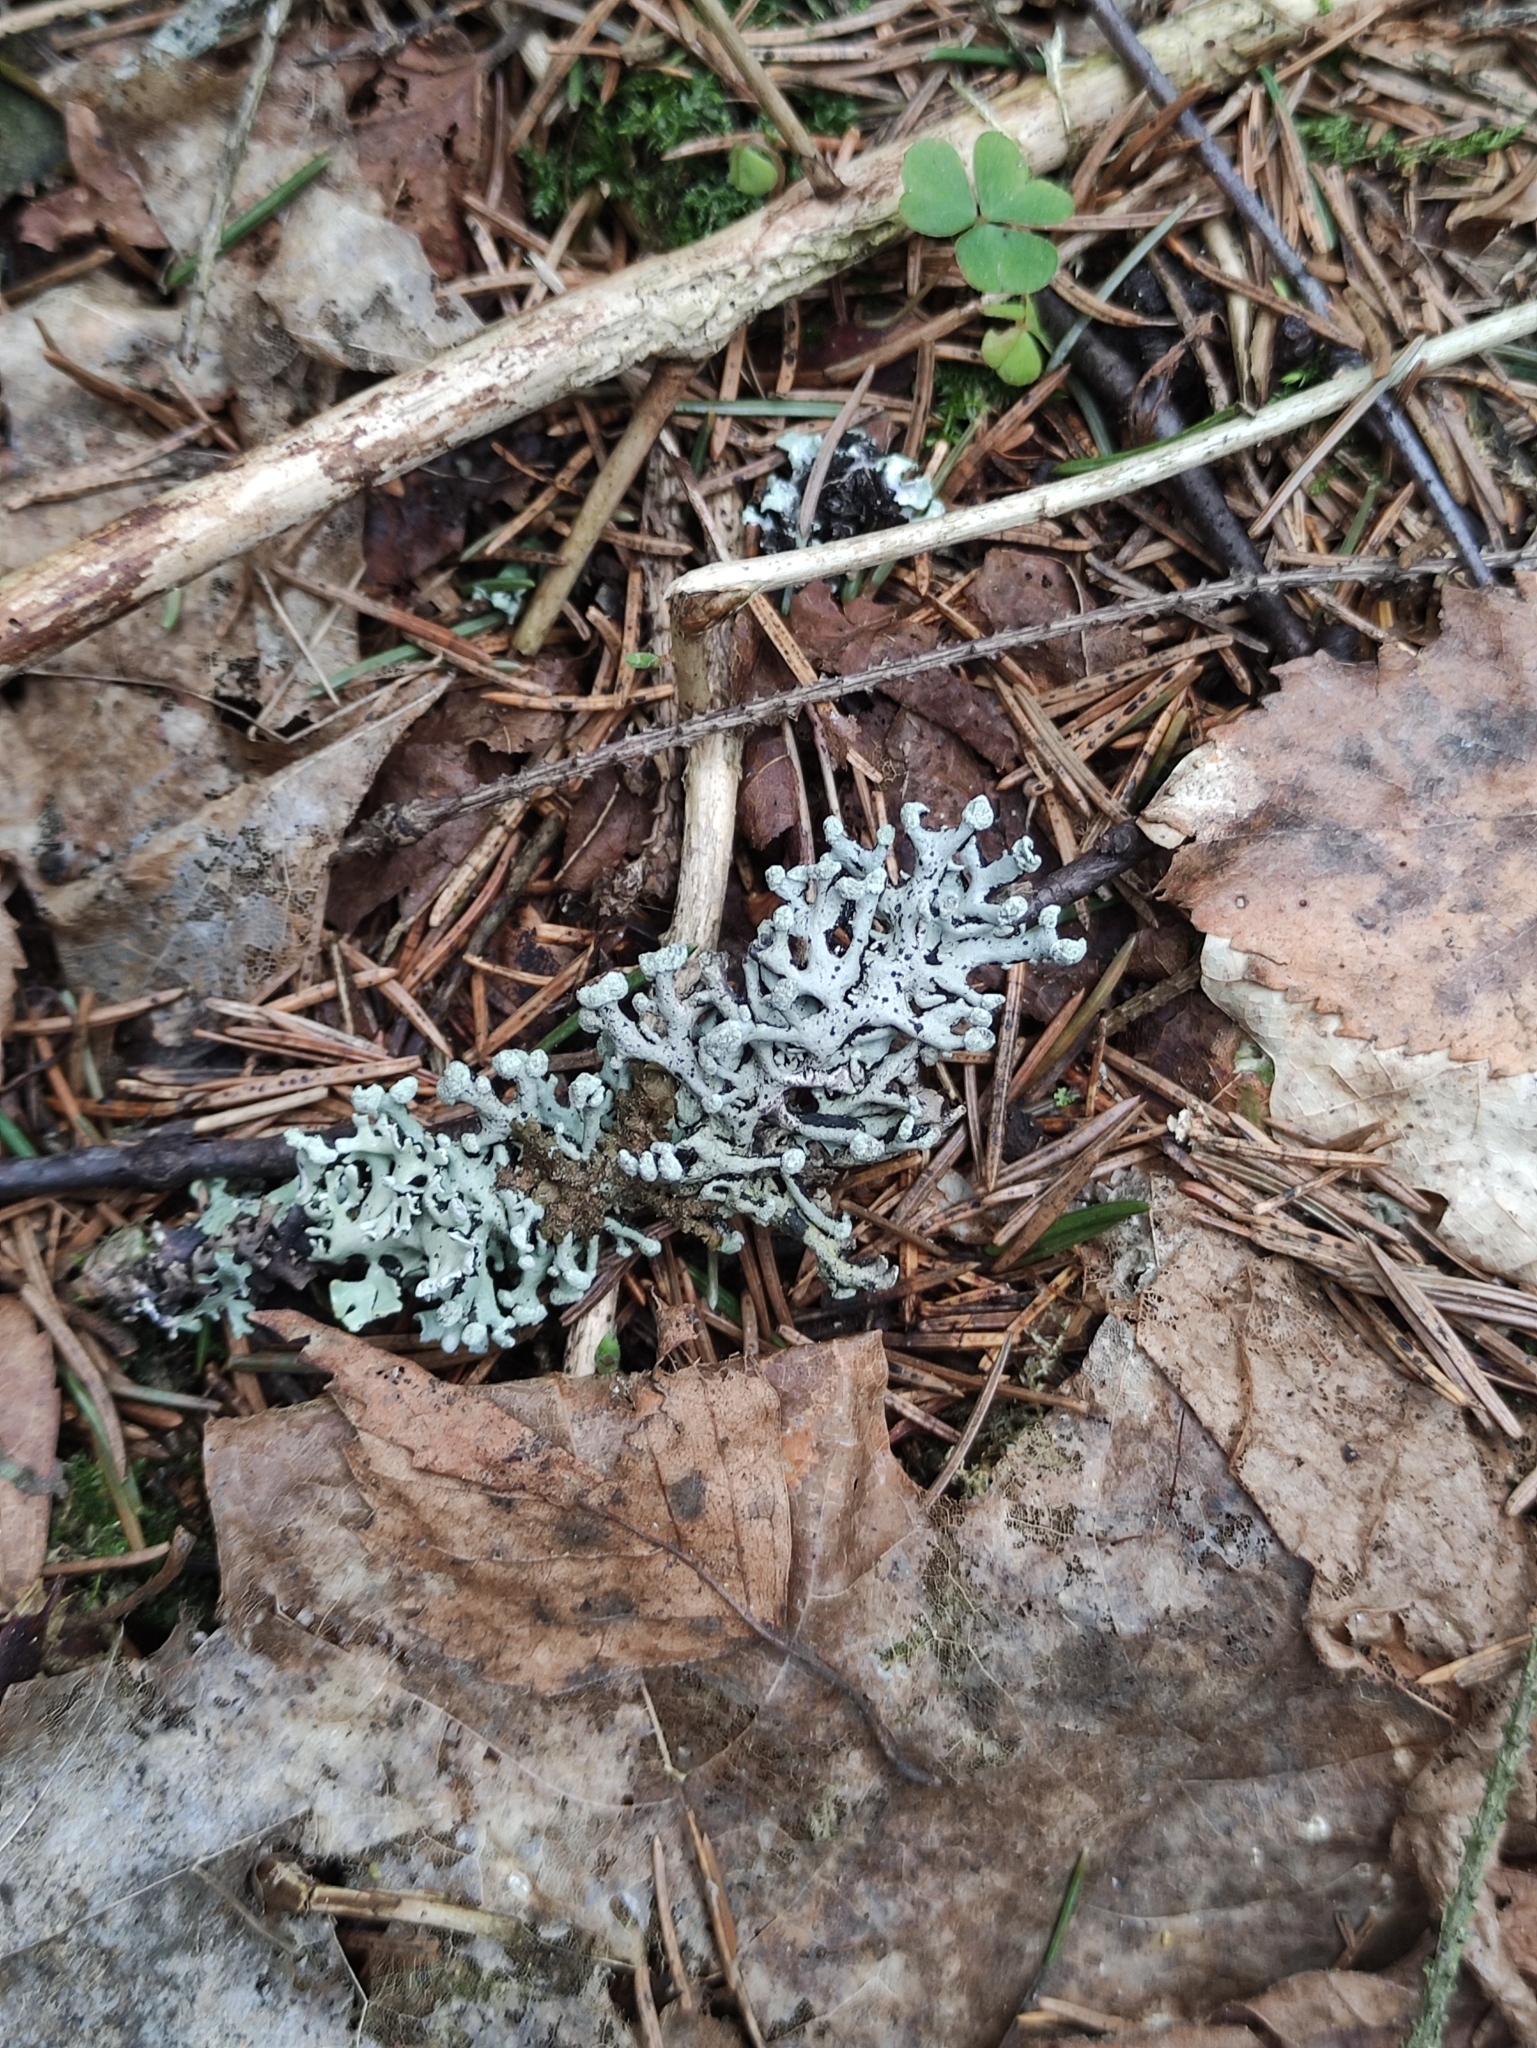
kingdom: Fungi
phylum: Ascomycota
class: Lecanoromycetes
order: Lecanorales
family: Parmeliaceae
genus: Hypogymnia
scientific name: Hypogymnia tubulosa
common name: Powder-headed tube lichen
